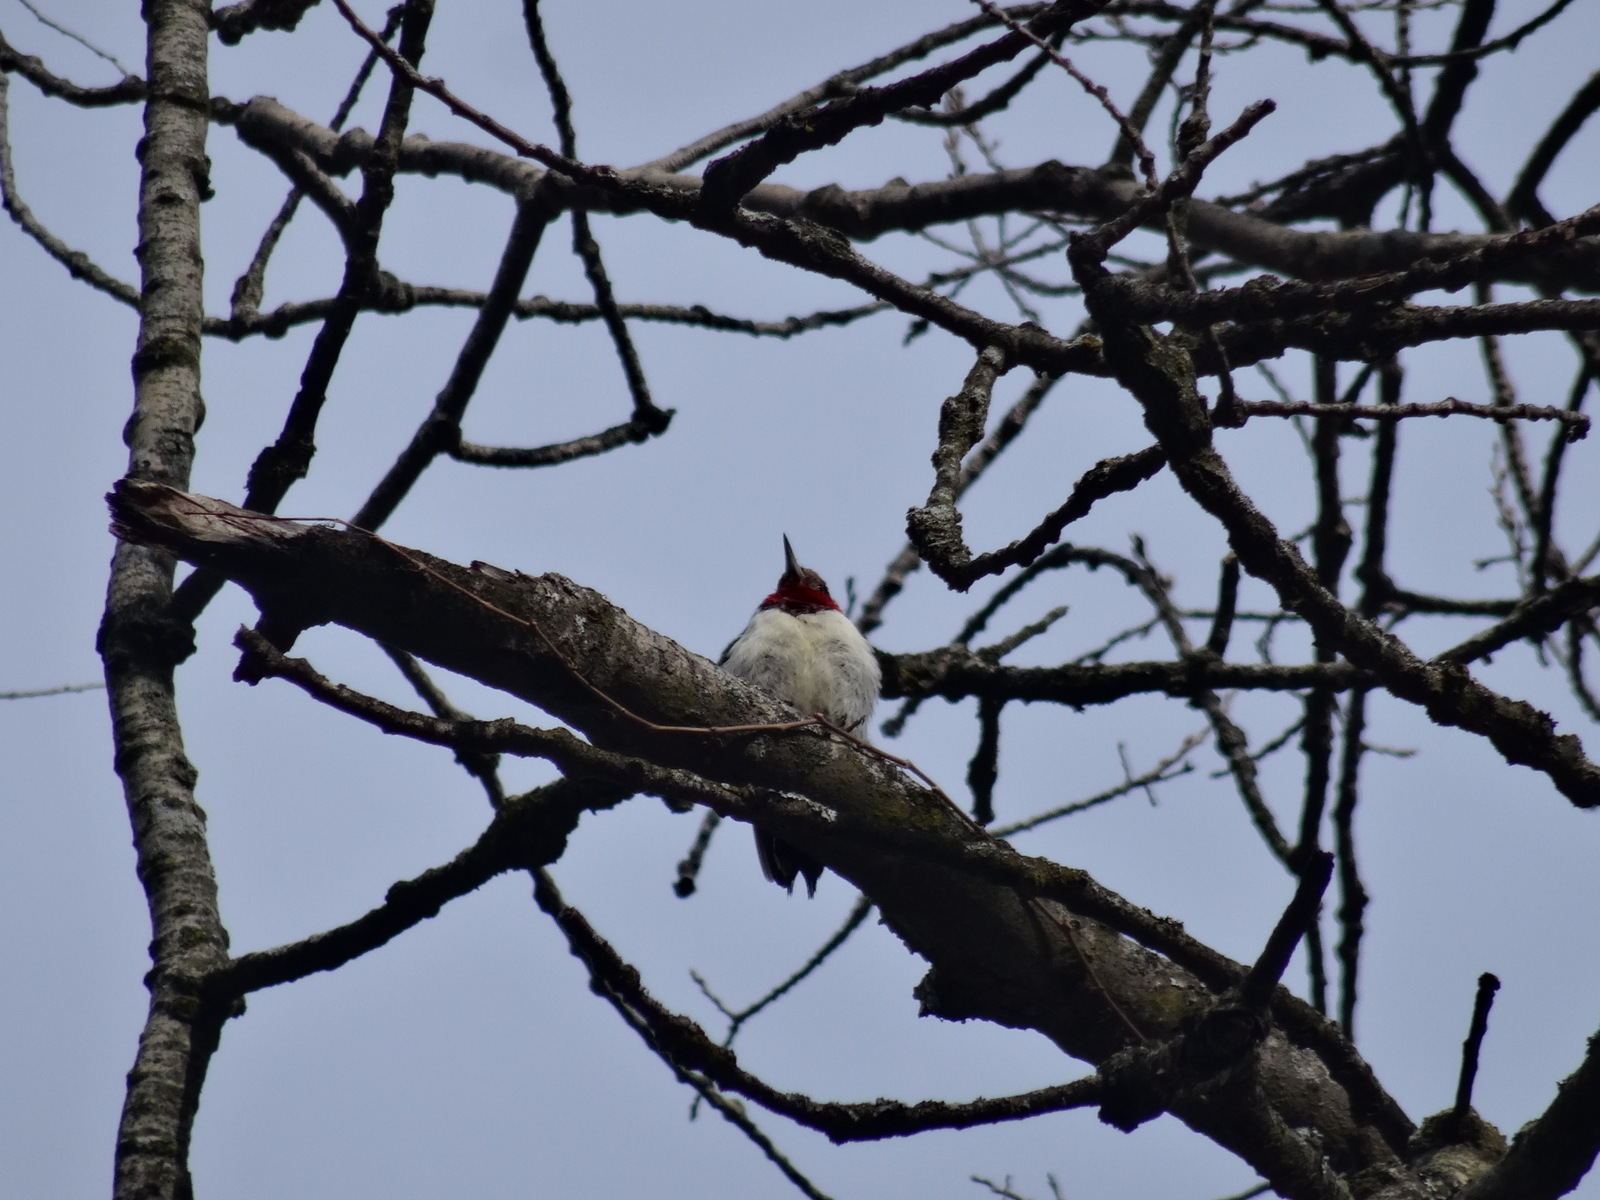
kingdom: Animalia
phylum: Chordata
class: Aves
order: Piciformes
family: Picidae
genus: Melanerpes
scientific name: Melanerpes erythrocephalus
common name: Red-headed woodpecker
